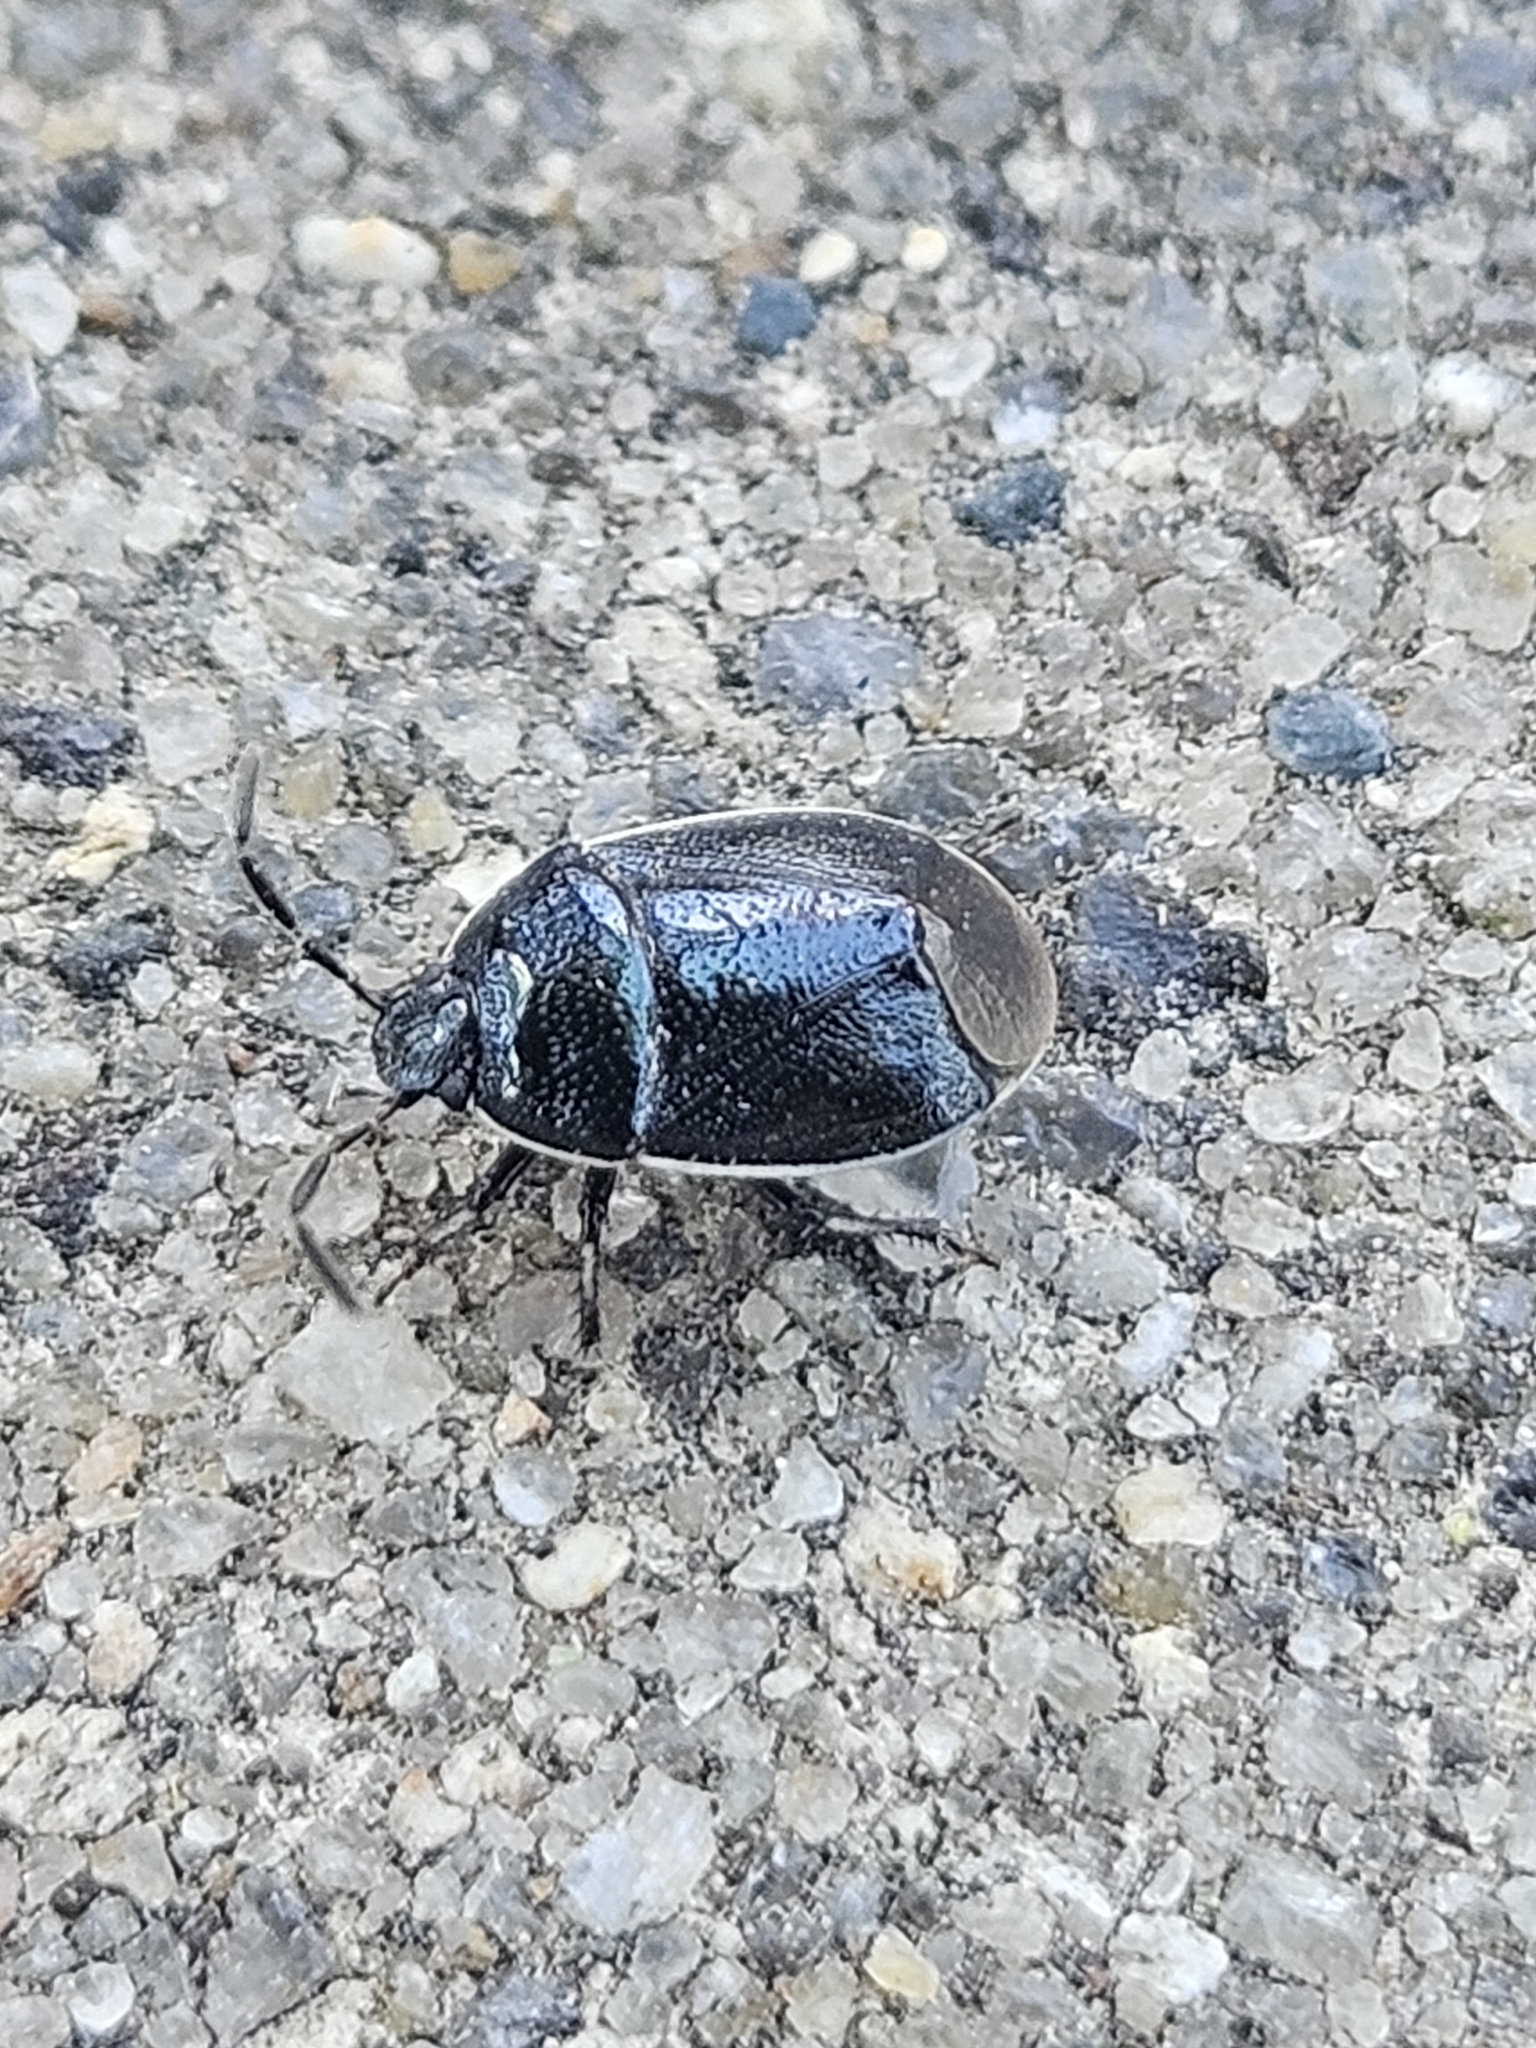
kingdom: Animalia
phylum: Arthropoda
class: Insecta
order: Hemiptera
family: Cydnidae
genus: Sehirus
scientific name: Sehirus cinctus
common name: White-margined burrower bug
